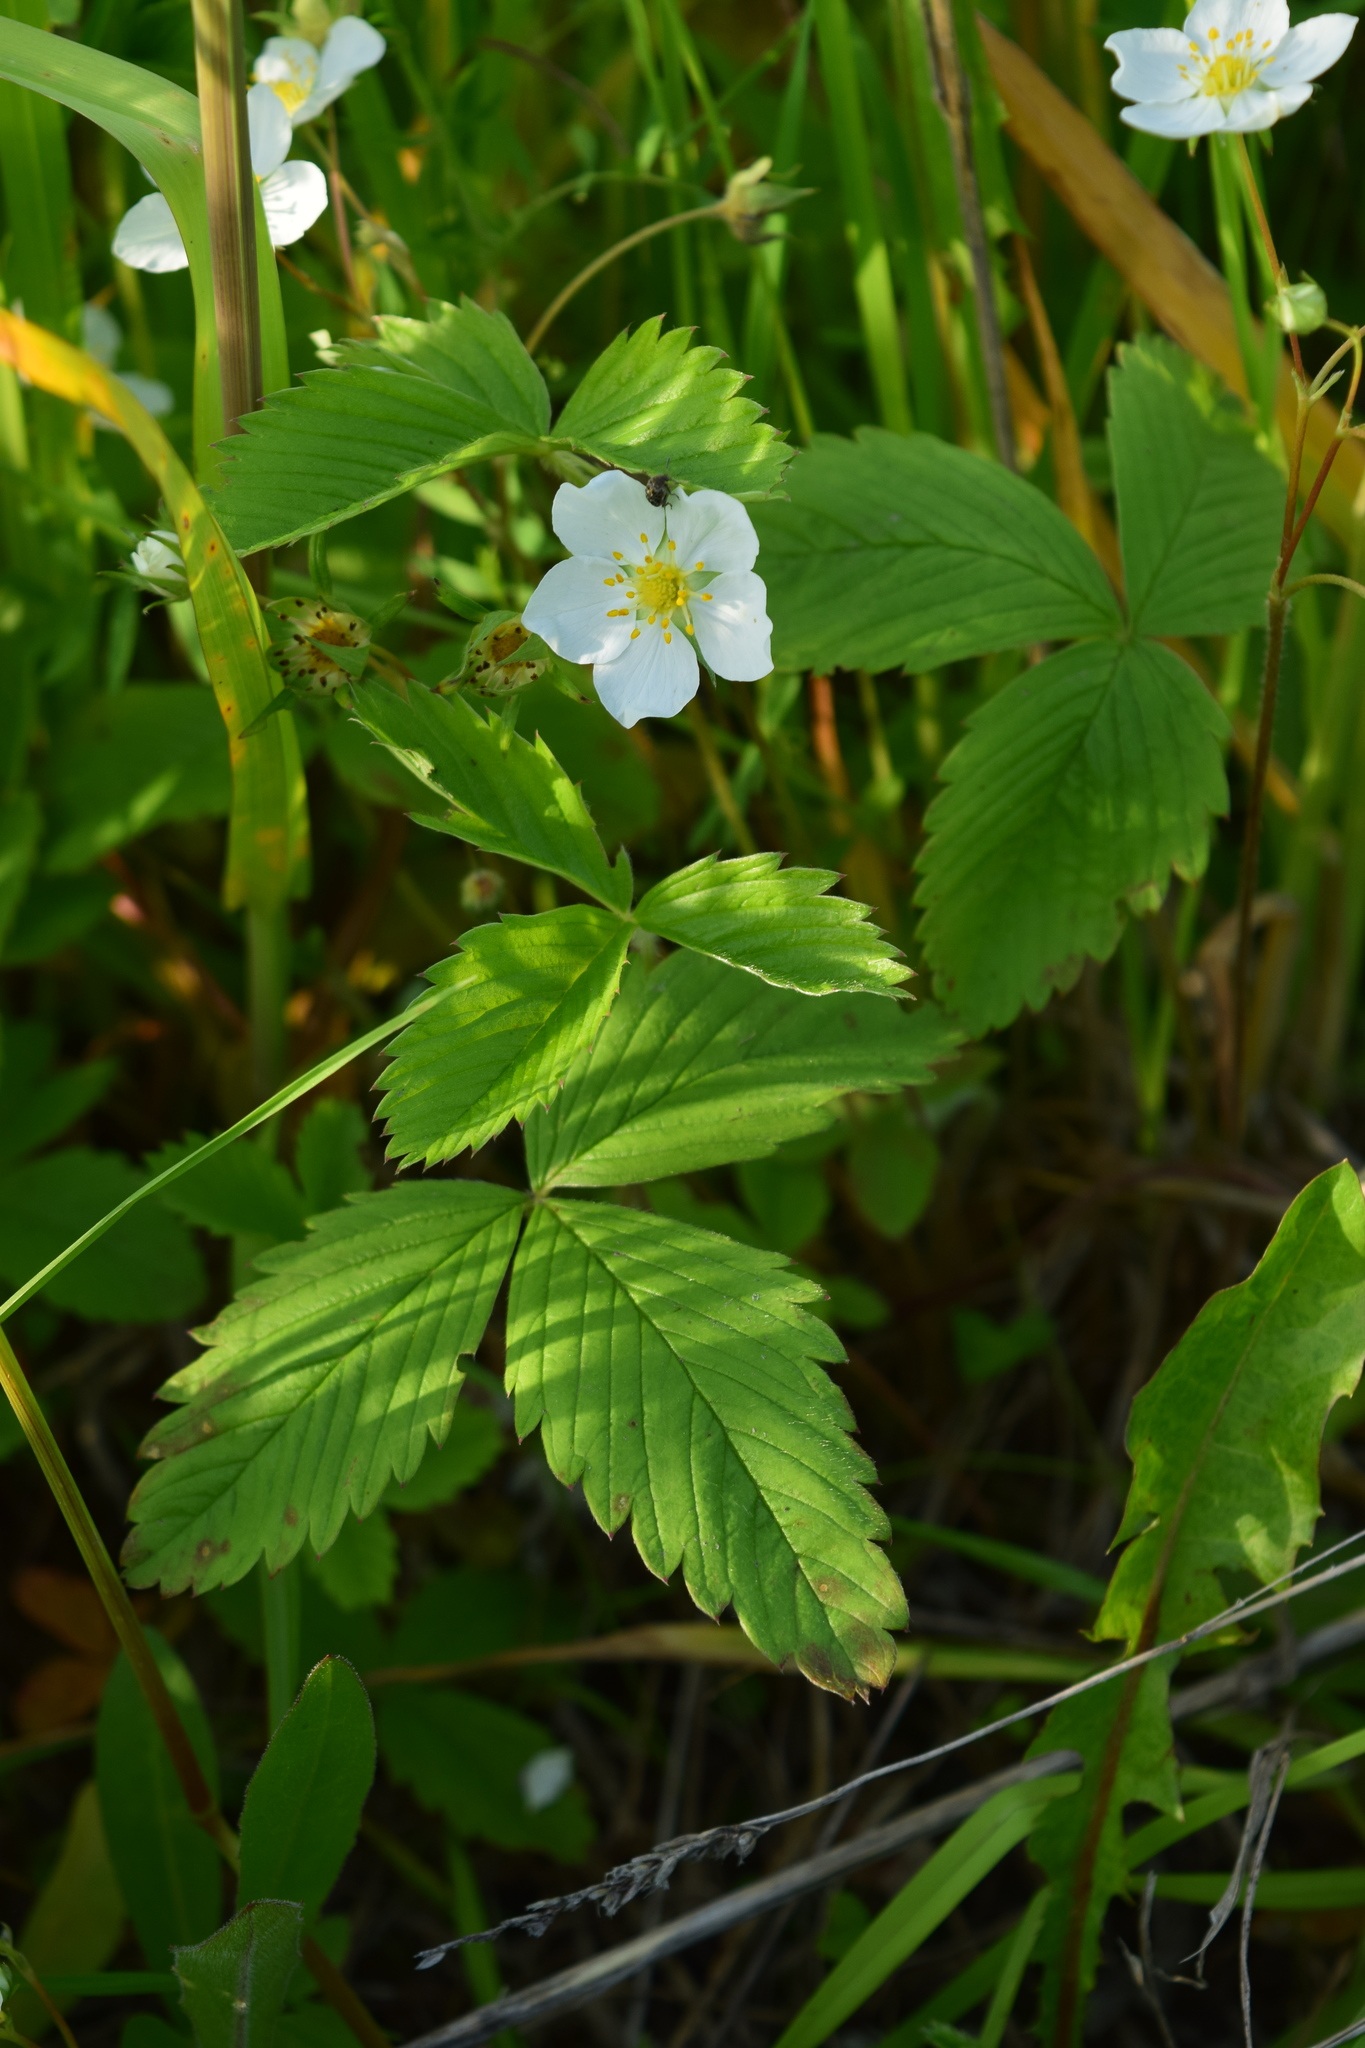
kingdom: Plantae
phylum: Tracheophyta
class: Magnoliopsida
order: Rosales
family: Rosaceae
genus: Fragaria
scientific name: Fragaria viridis
